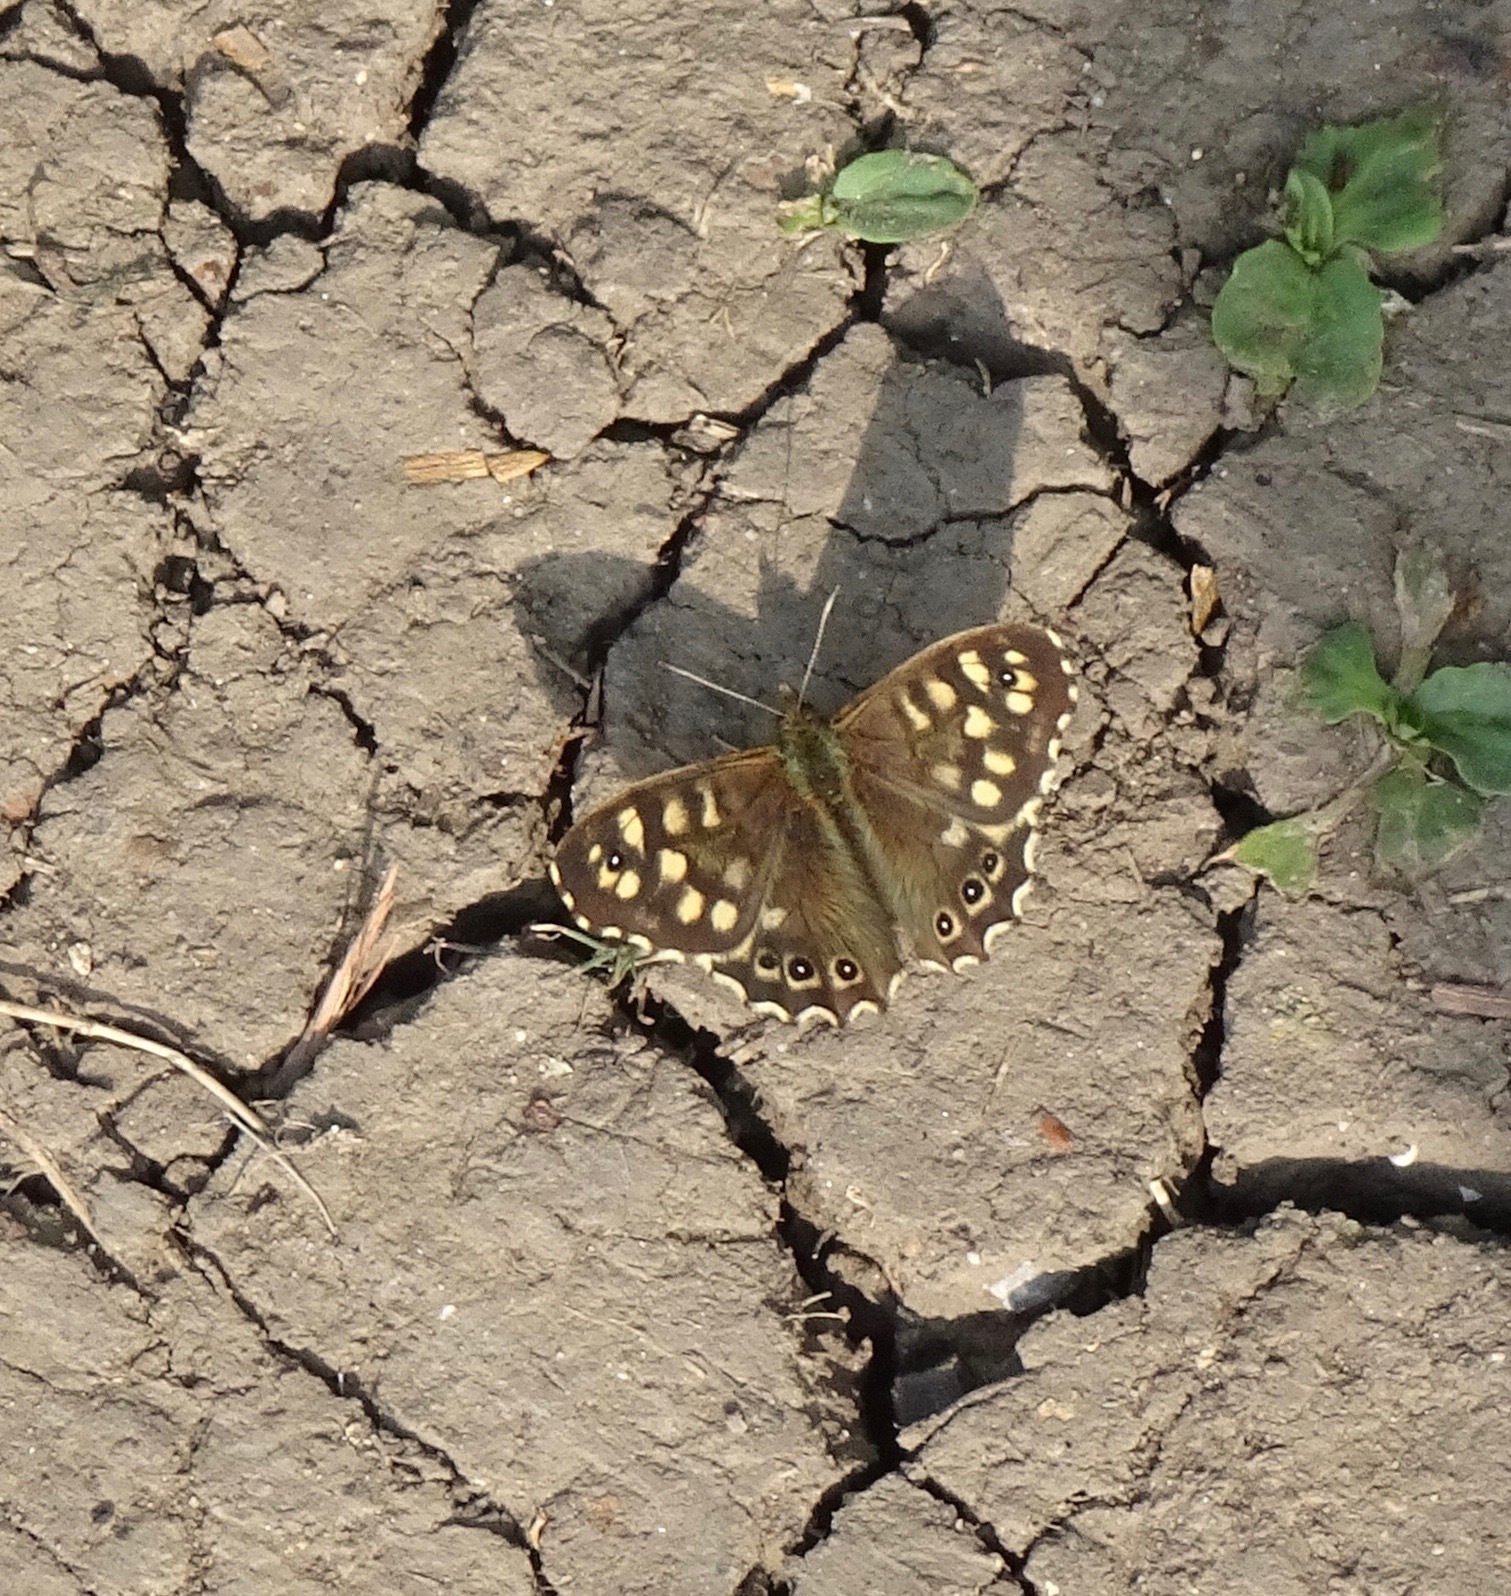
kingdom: Animalia
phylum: Arthropoda
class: Insecta
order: Lepidoptera
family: Nymphalidae
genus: Pararge
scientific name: Pararge aegeria
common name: Speckled wood
